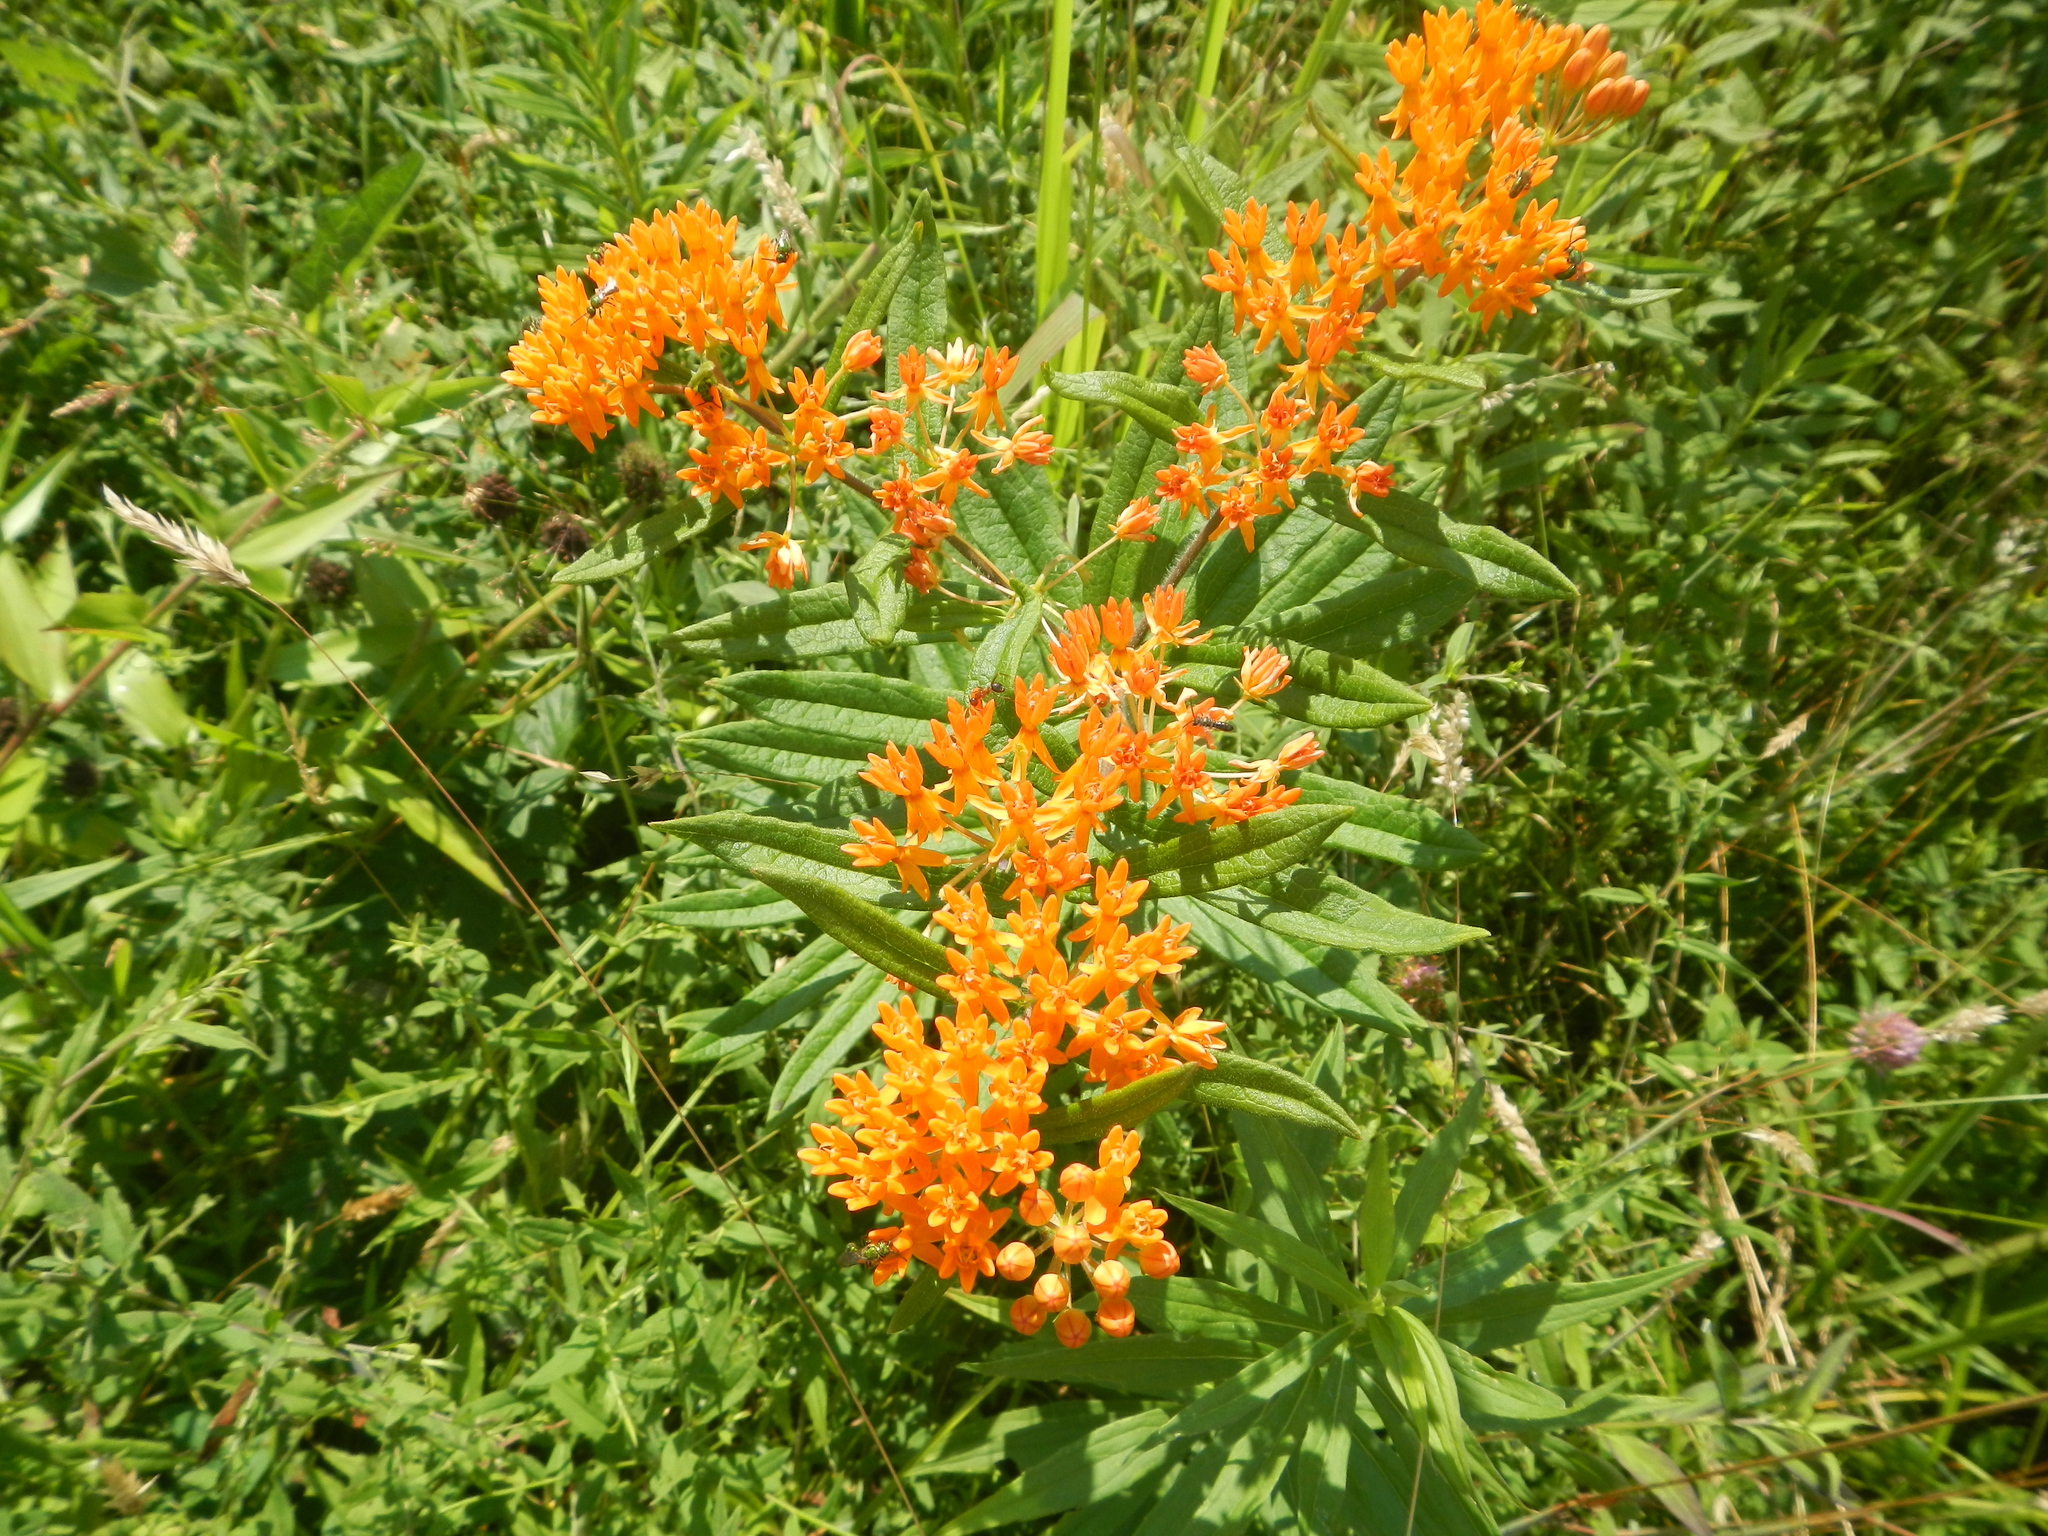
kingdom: Plantae
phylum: Tracheophyta
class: Magnoliopsida
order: Gentianales
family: Apocynaceae
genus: Asclepias
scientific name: Asclepias tuberosa
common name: Butterfly milkweed
